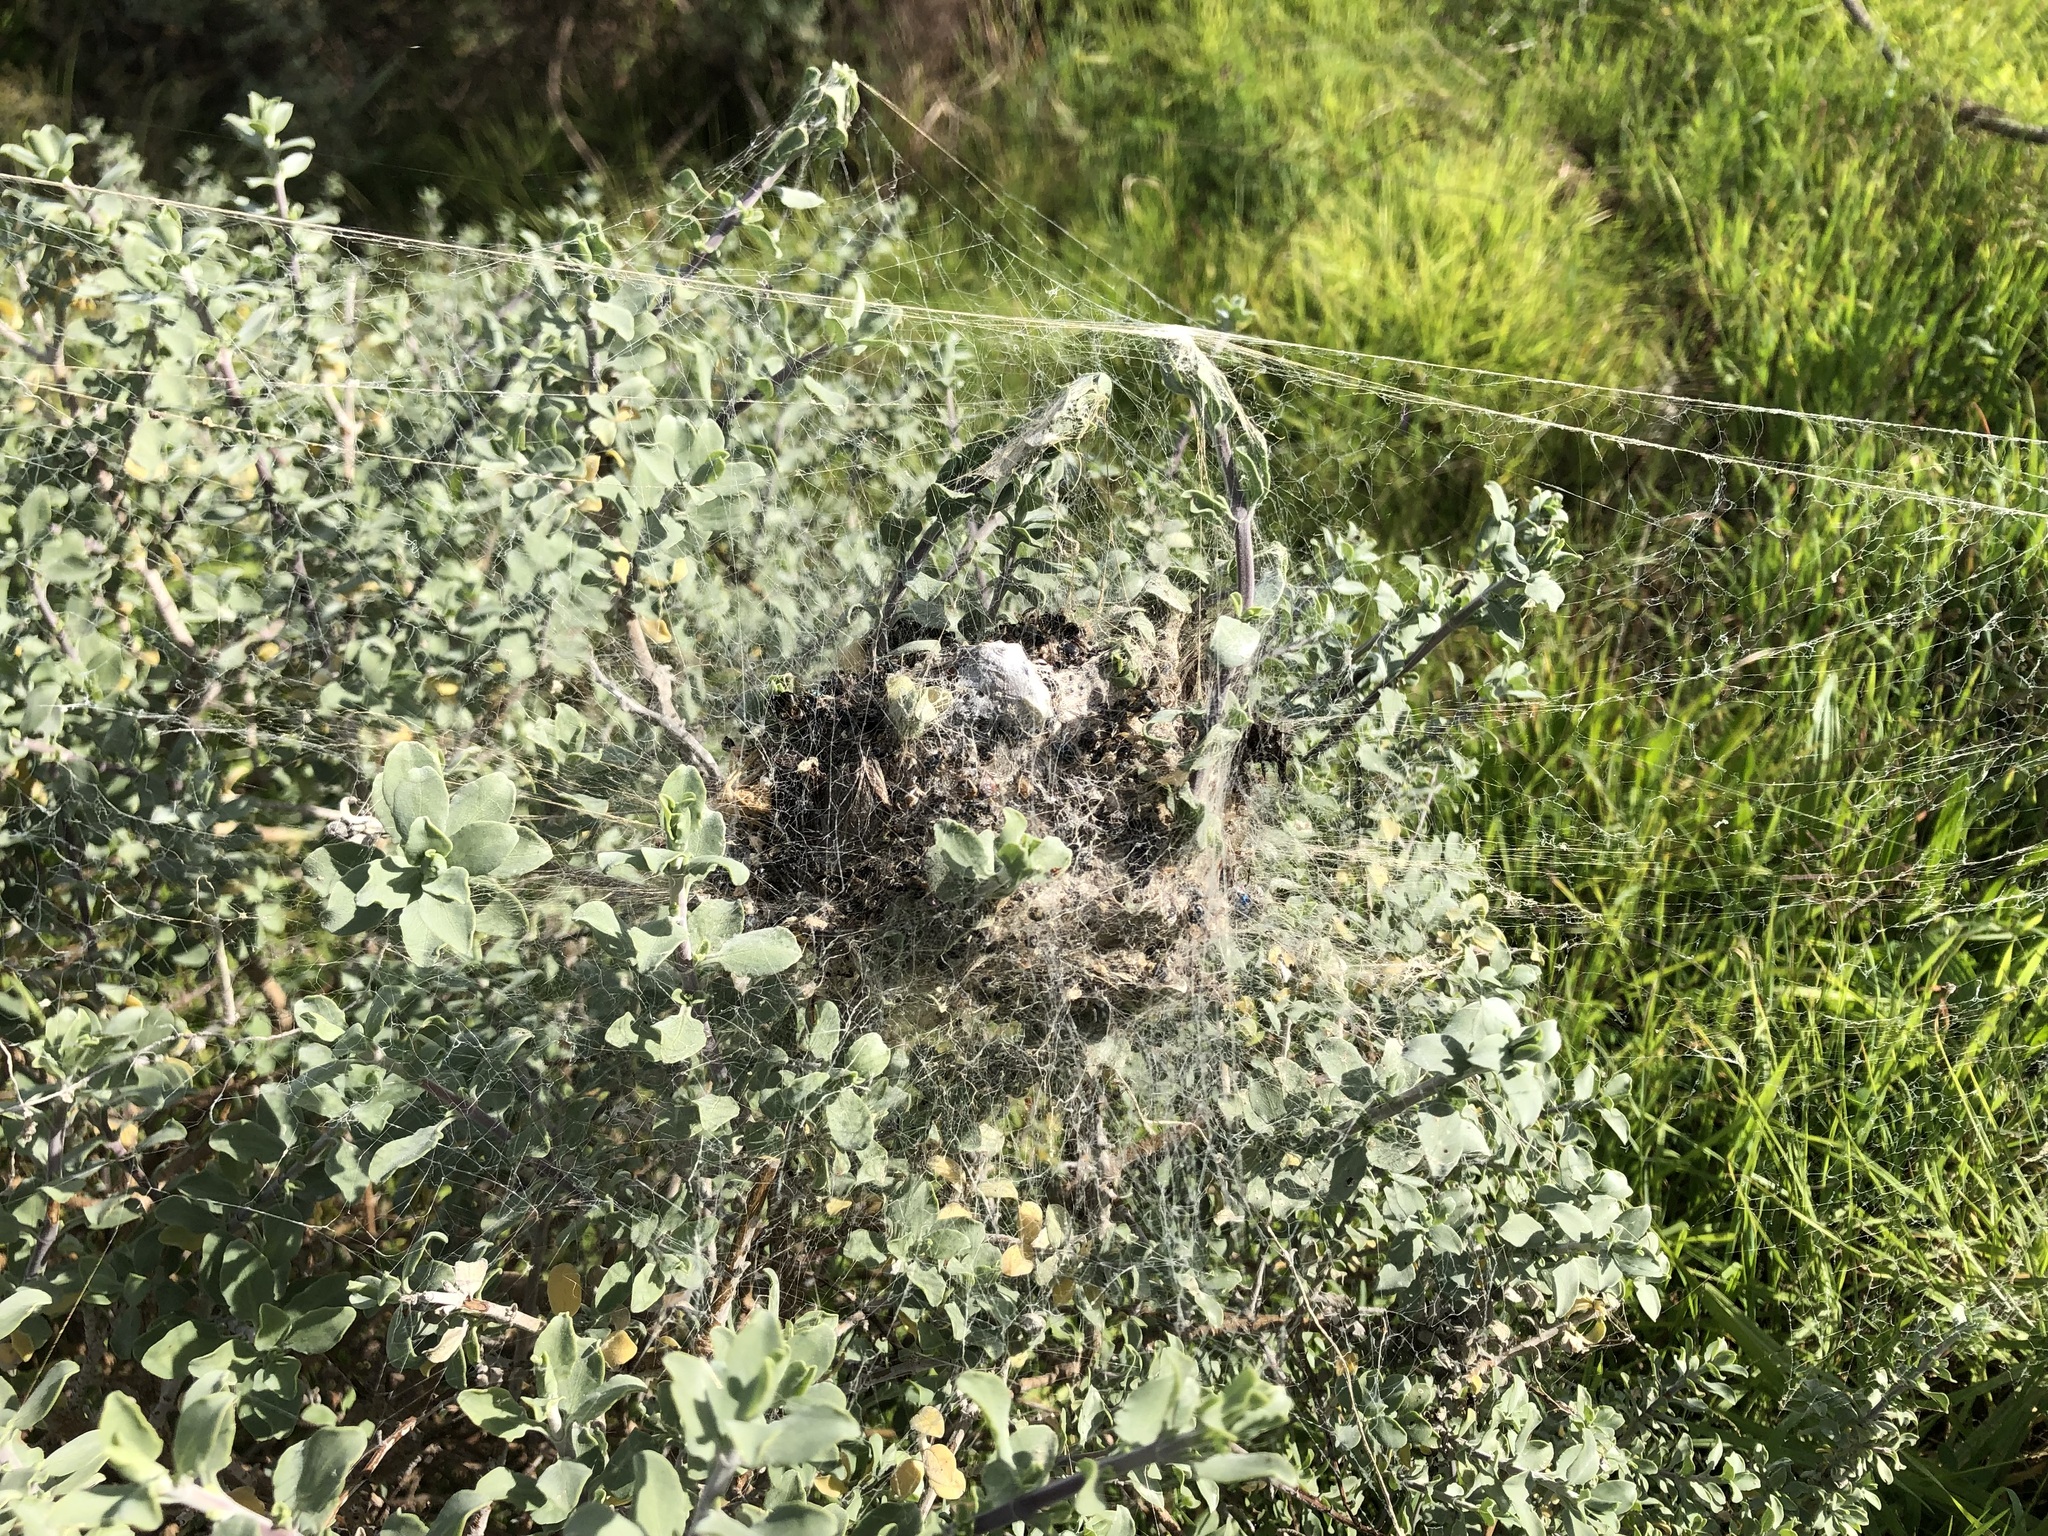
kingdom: Animalia
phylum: Arthropoda
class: Arachnida
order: Araneae
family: Eresidae
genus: Stegodyphus
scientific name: Stegodyphus dumicola
